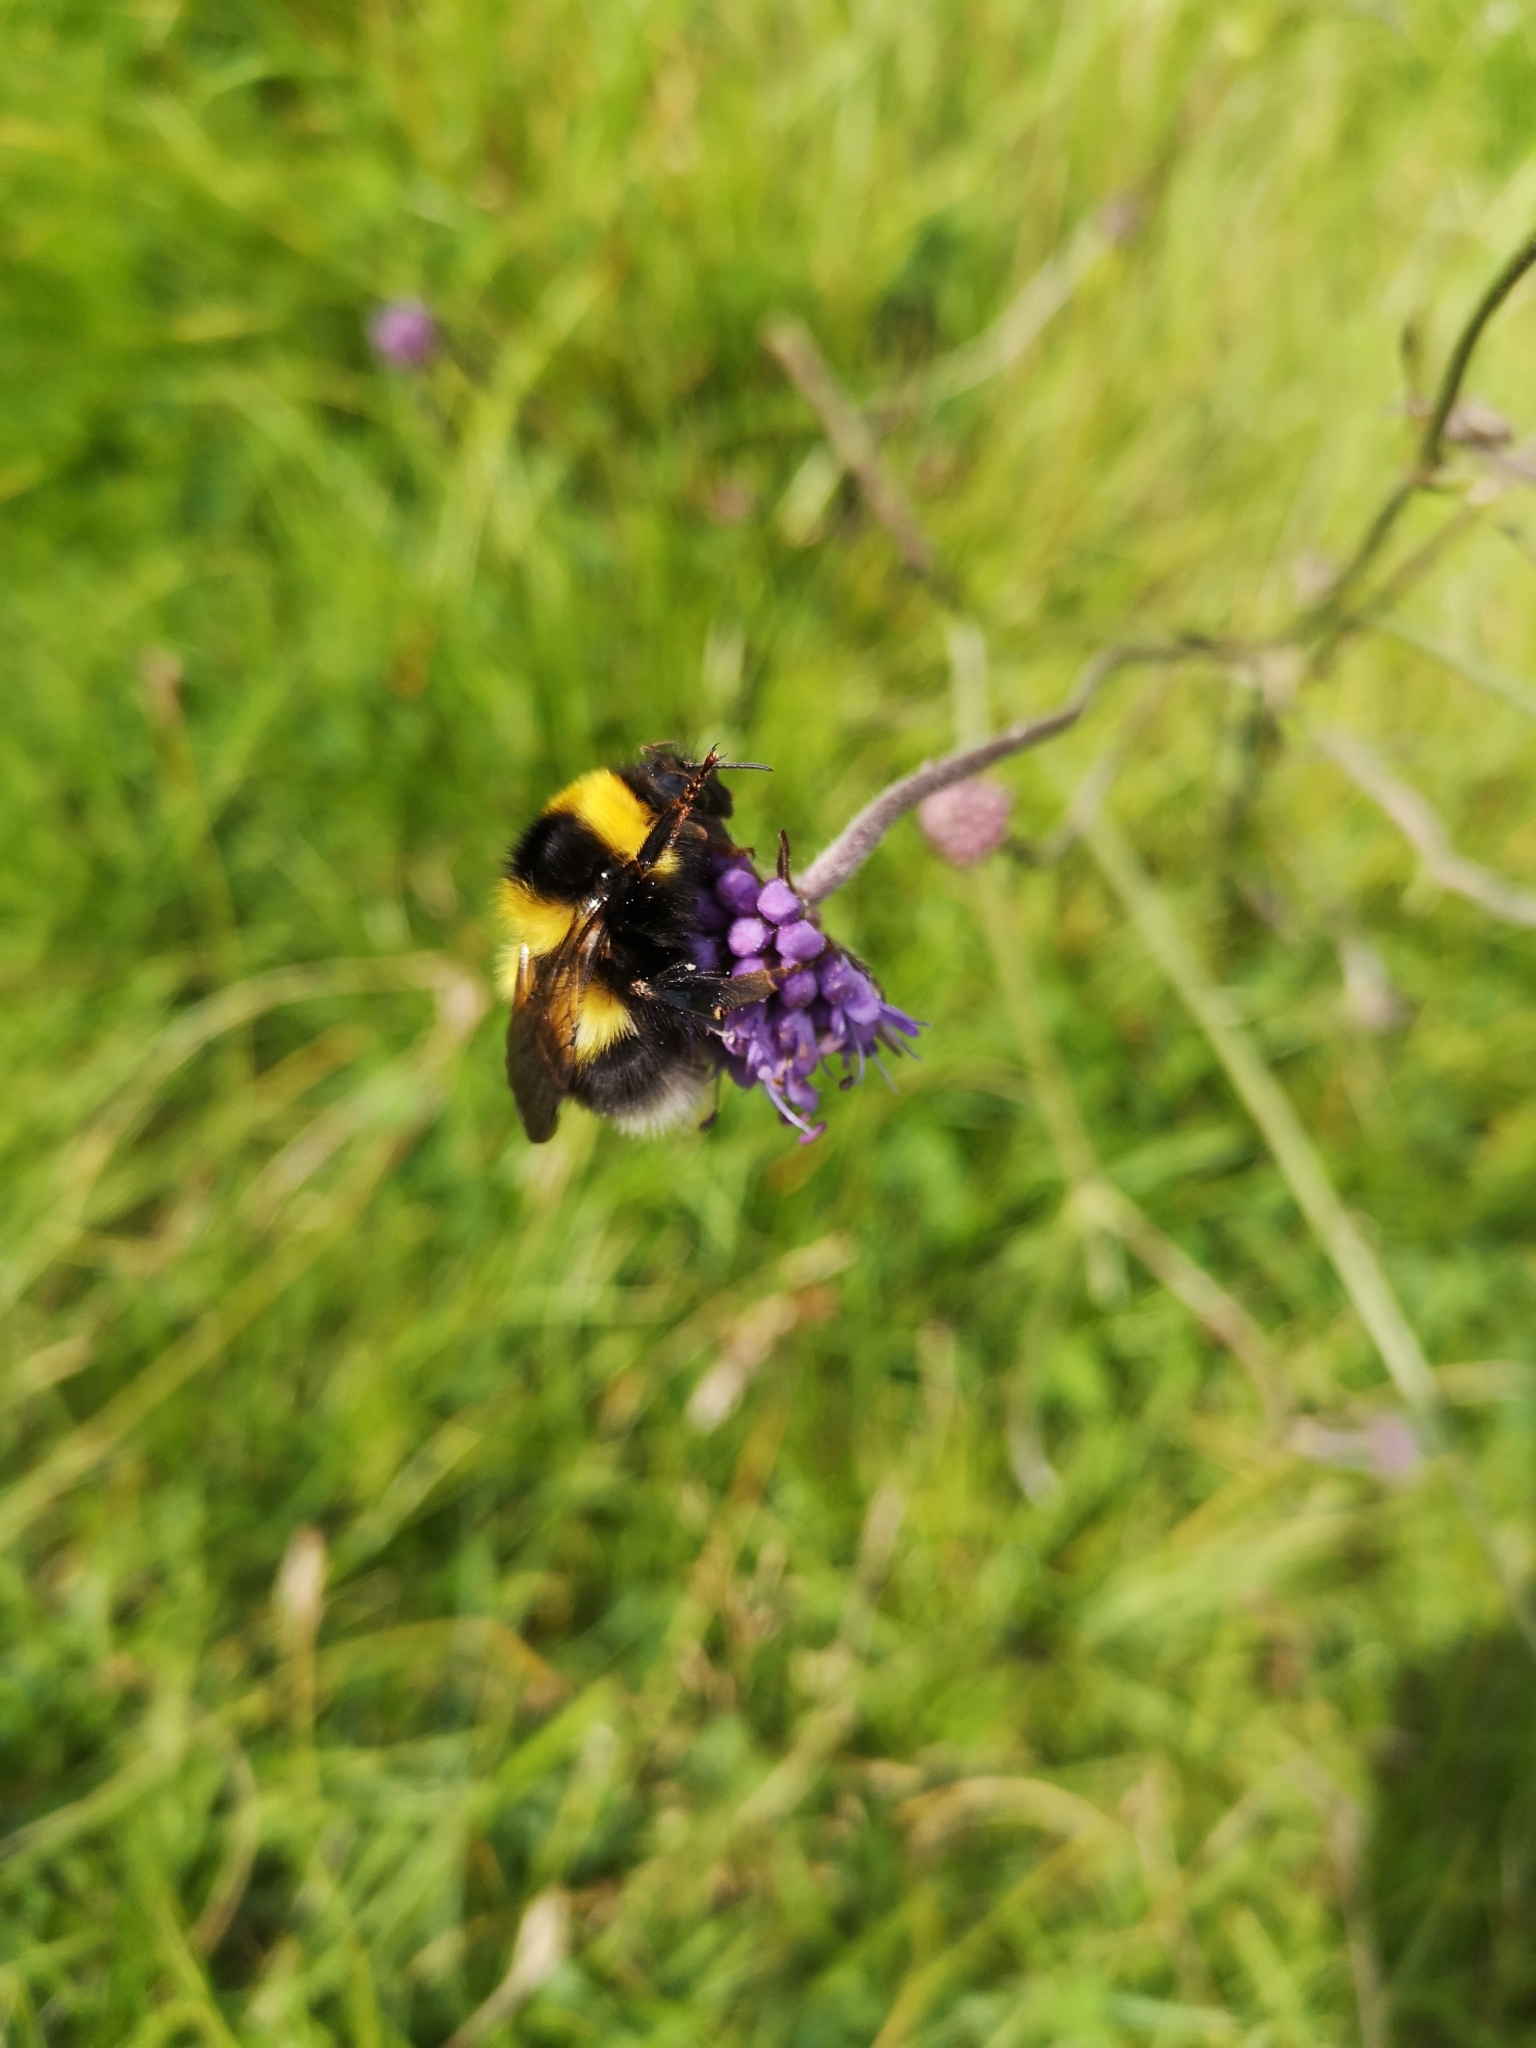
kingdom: Animalia
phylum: Arthropoda
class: Insecta
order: Hymenoptera
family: Apidae
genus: Bombus
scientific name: Bombus hortorum
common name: Garden bumblebee
